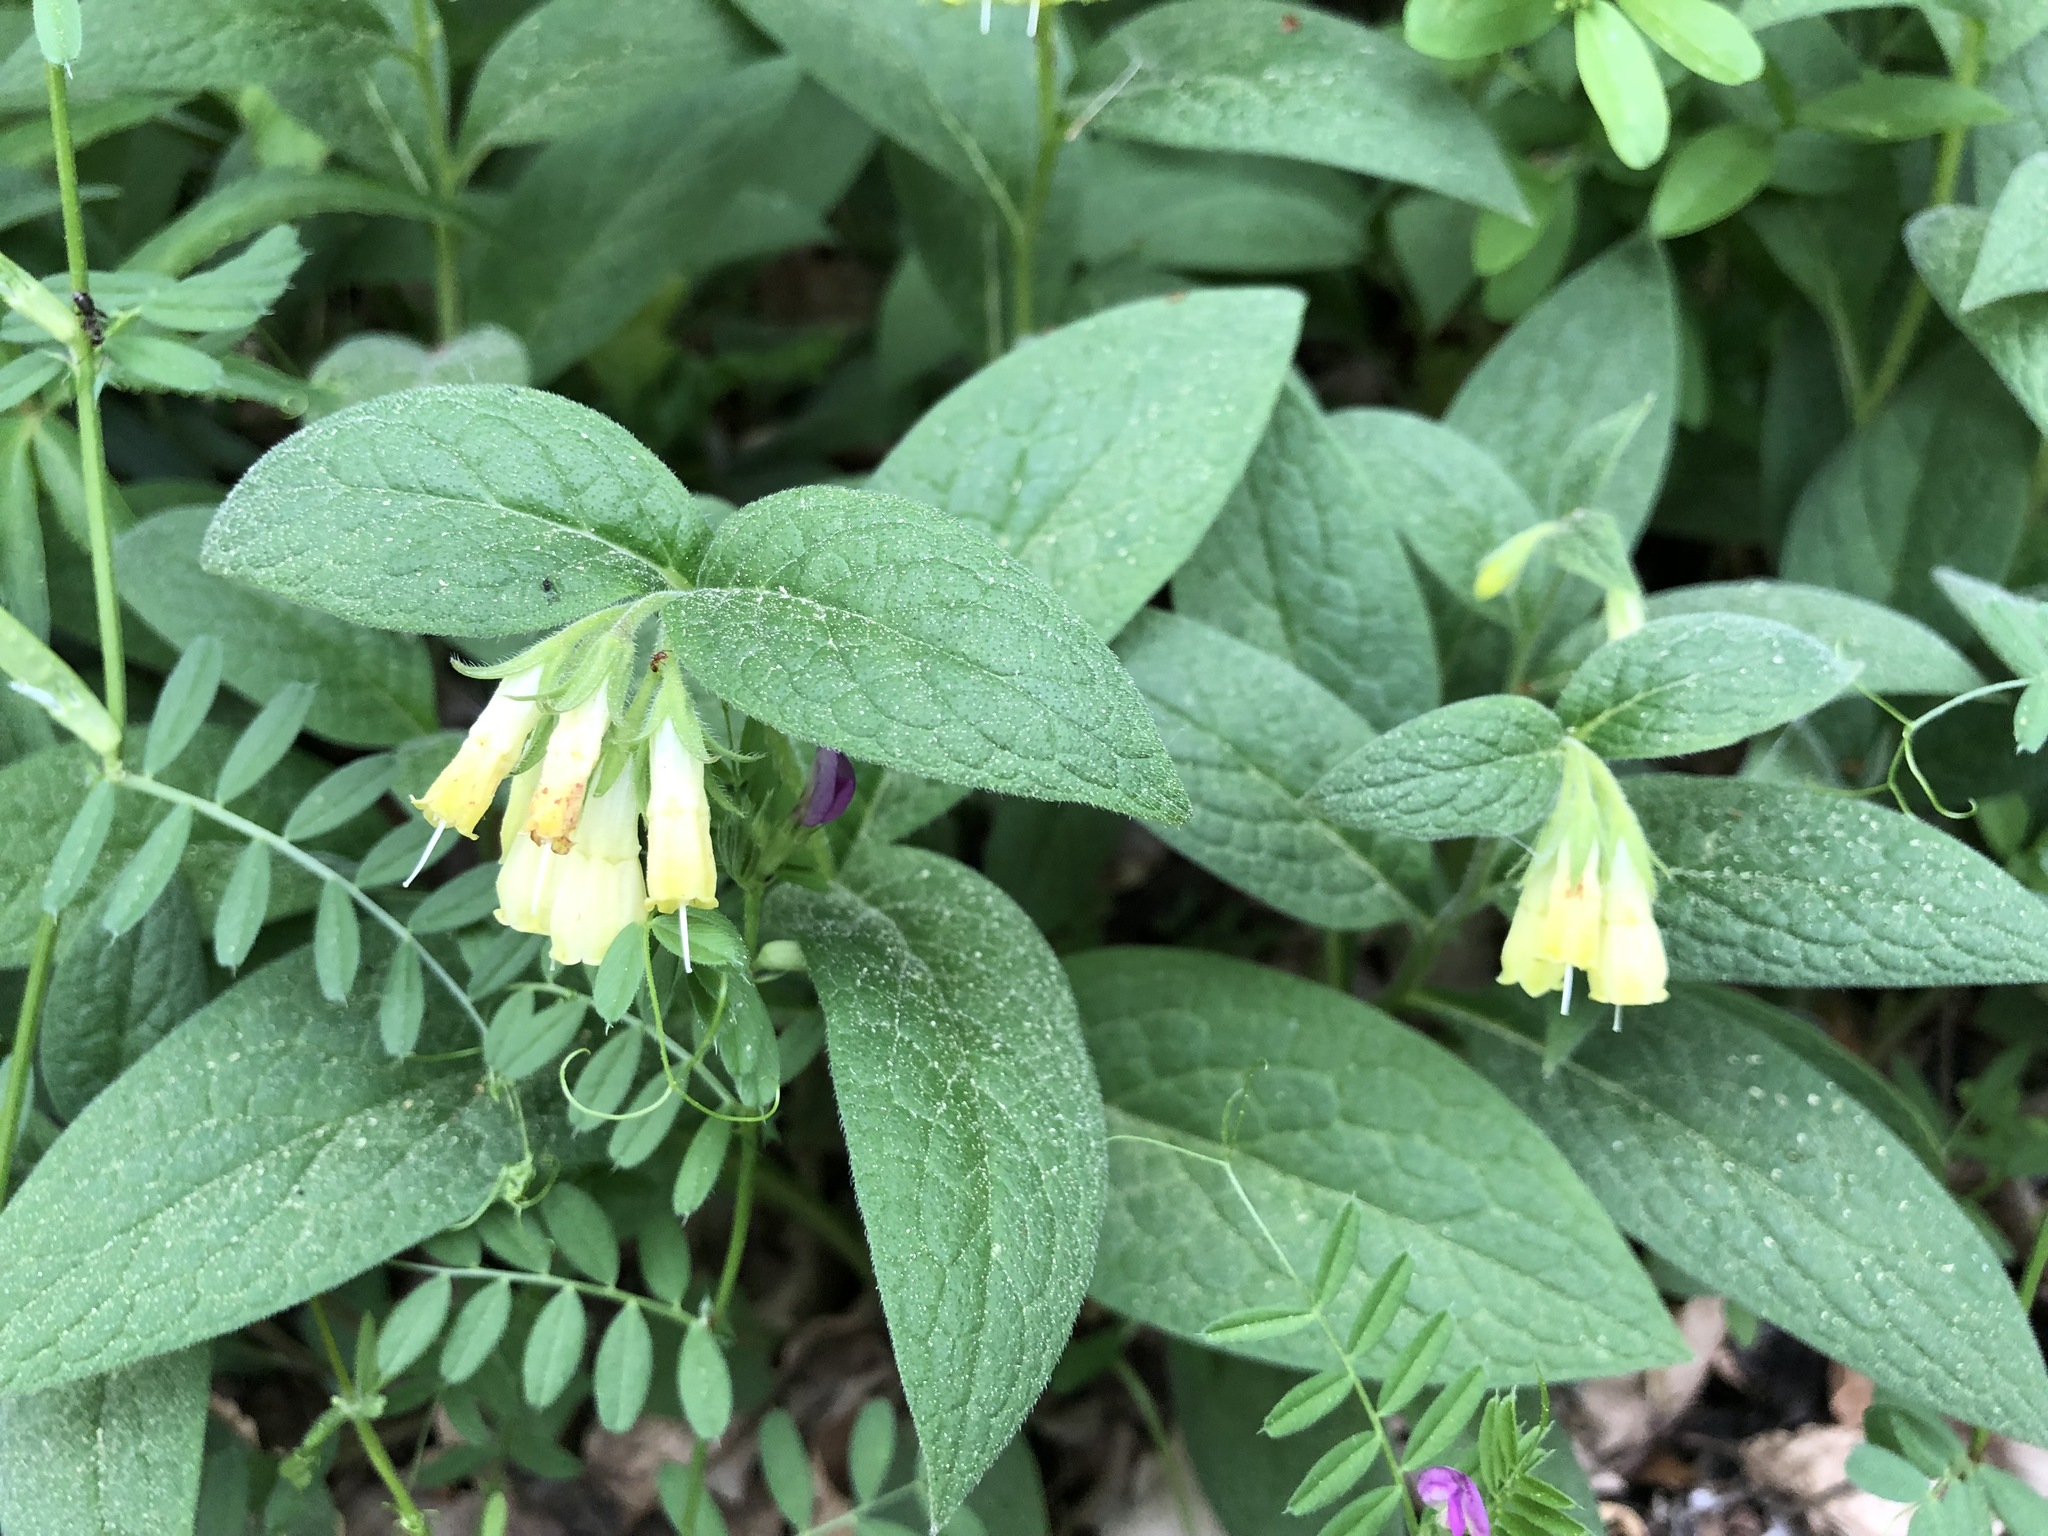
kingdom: Plantae
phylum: Tracheophyta
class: Magnoliopsida
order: Boraginales
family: Boraginaceae
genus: Symphytum
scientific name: Symphytum tuberosum
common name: Tuberous comfrey
